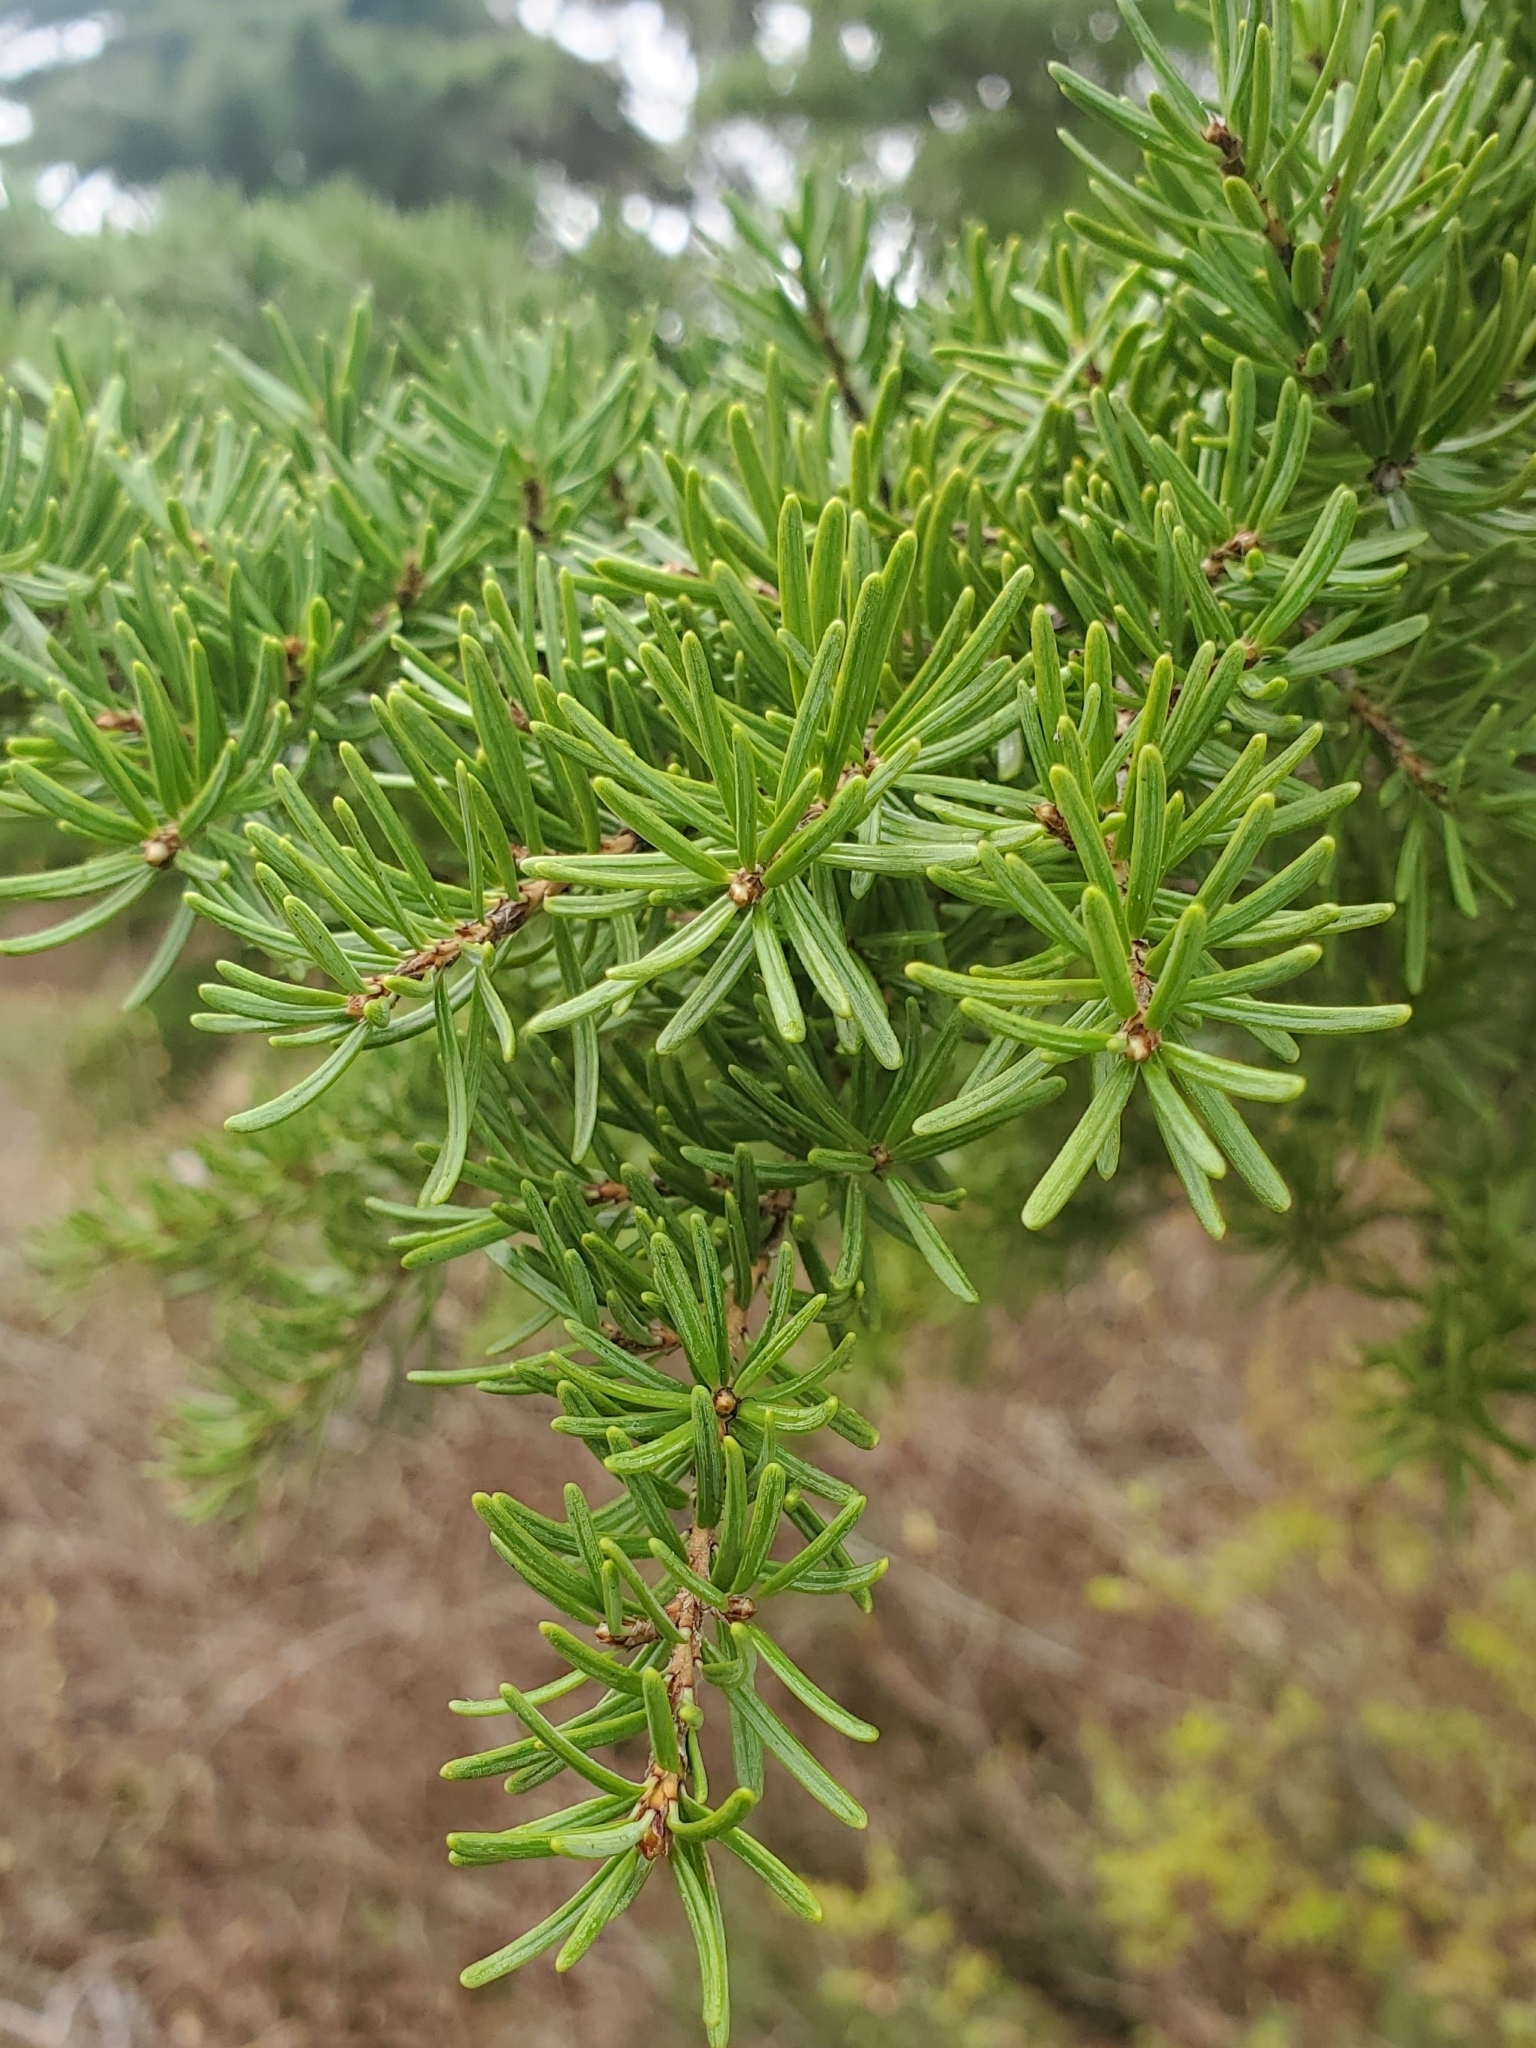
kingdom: Plantae
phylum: Tracheophyta
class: Pinopsida
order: Pinales
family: Pinaceae
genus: Tsuga
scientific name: Tsuga mertensiana
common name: Mountain hemlock
